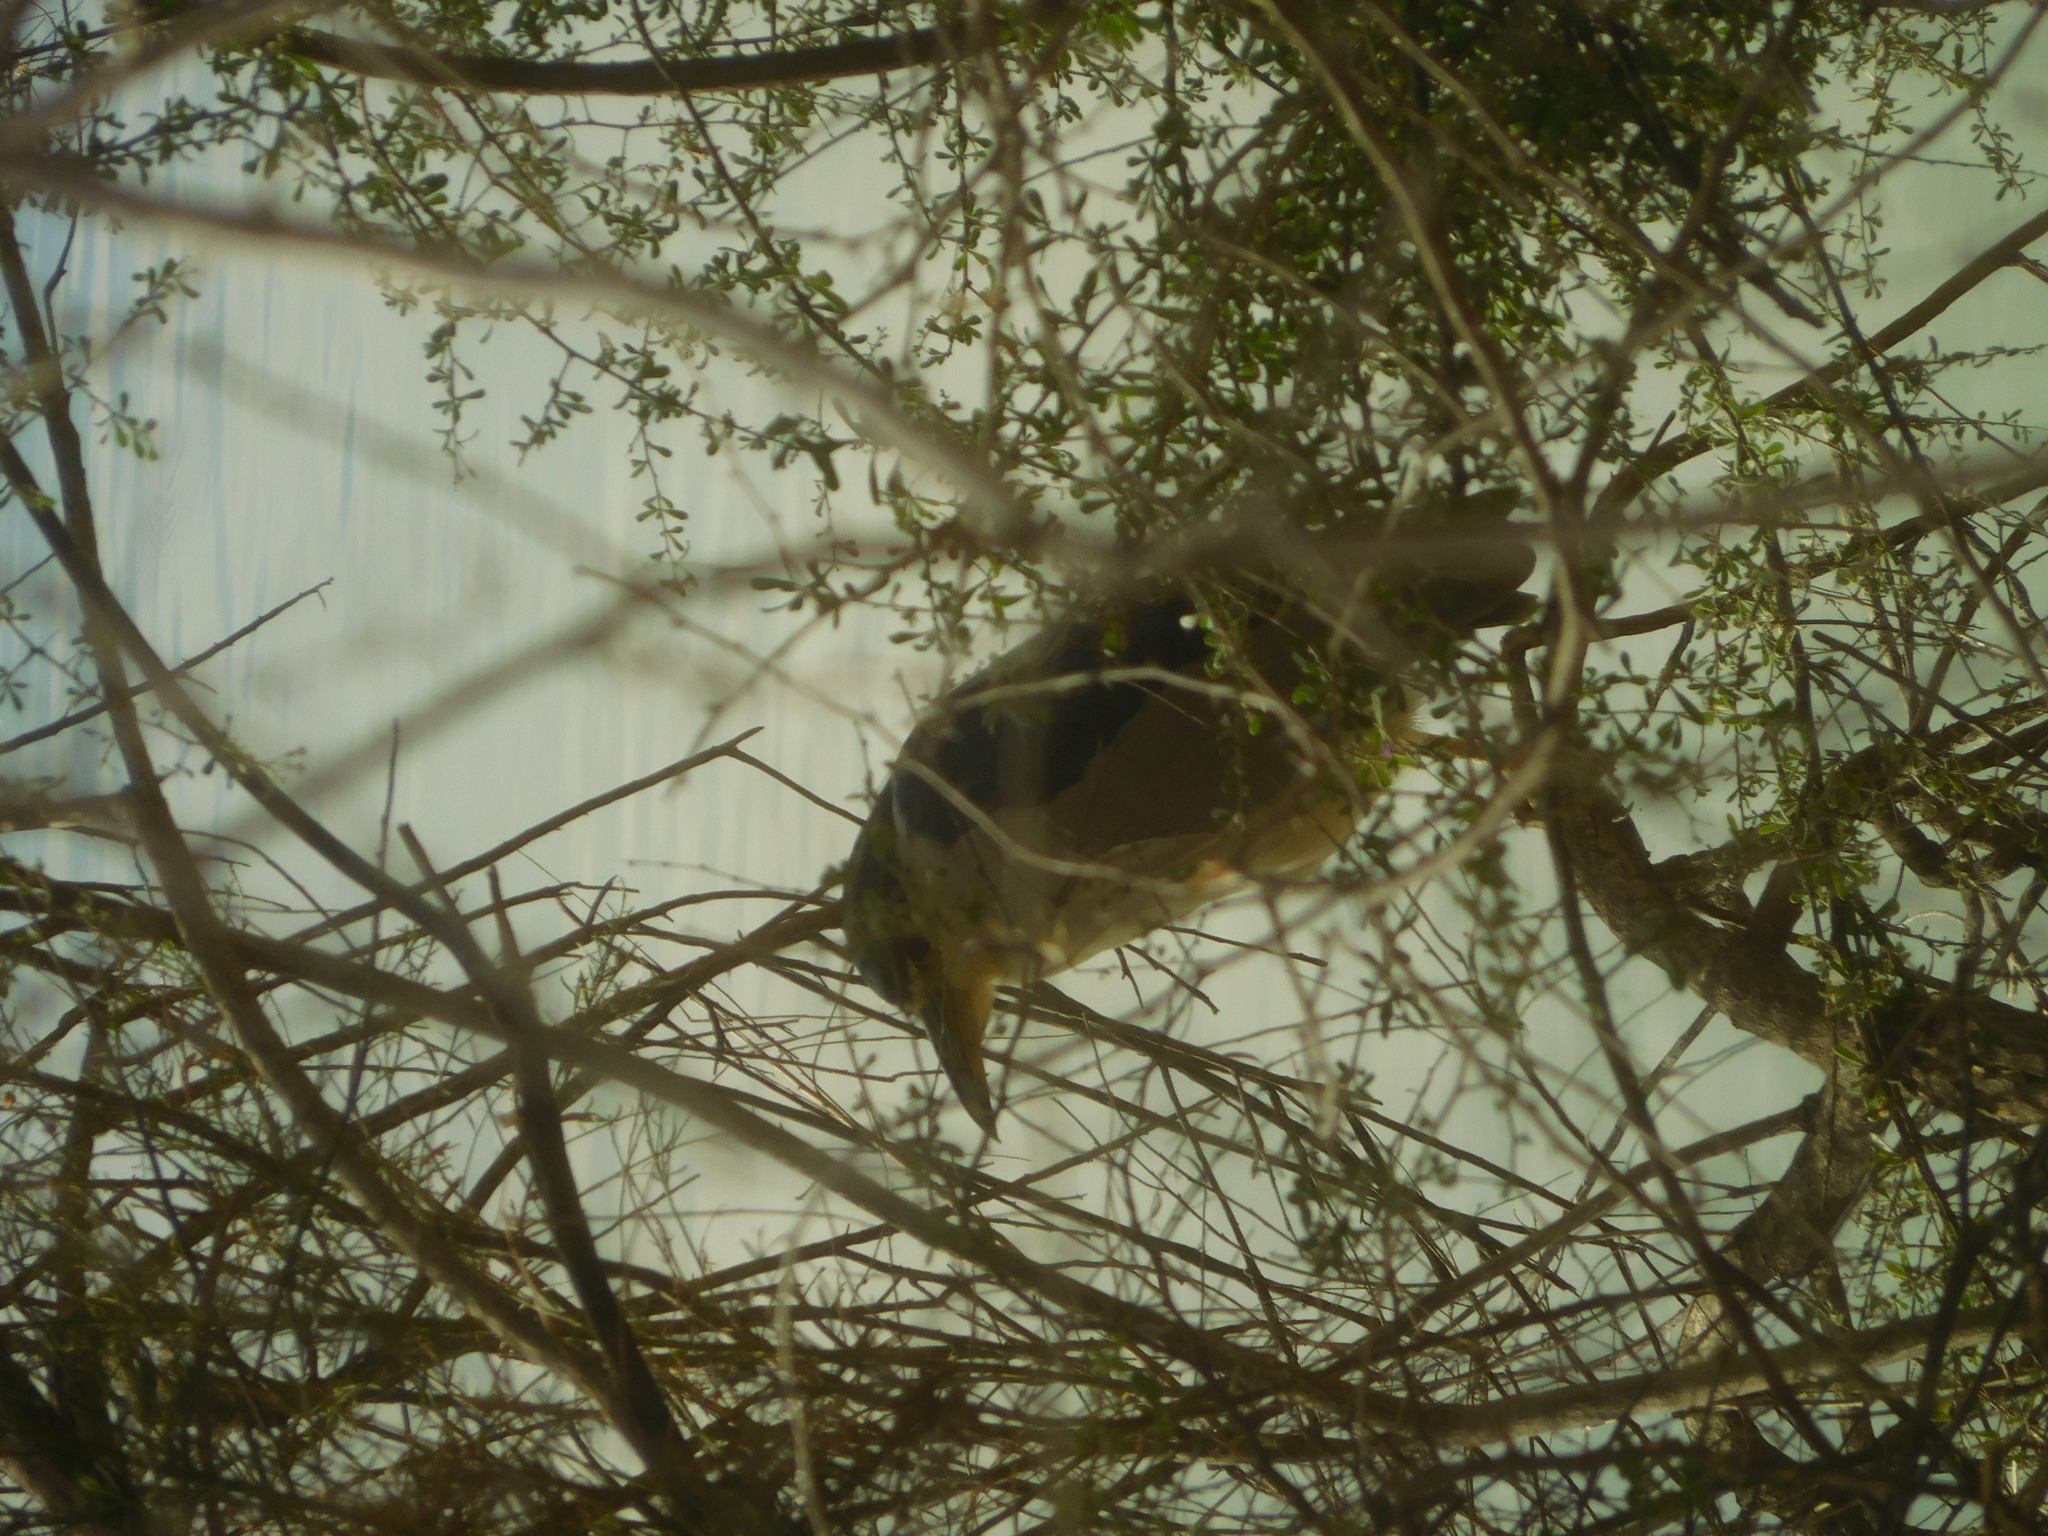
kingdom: Animalia
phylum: Chordata
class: Aves
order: Pelecaniformes
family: Ardeidae
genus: Nycticorax
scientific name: Nycticorax nycticorax
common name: Black-crowned night heron
